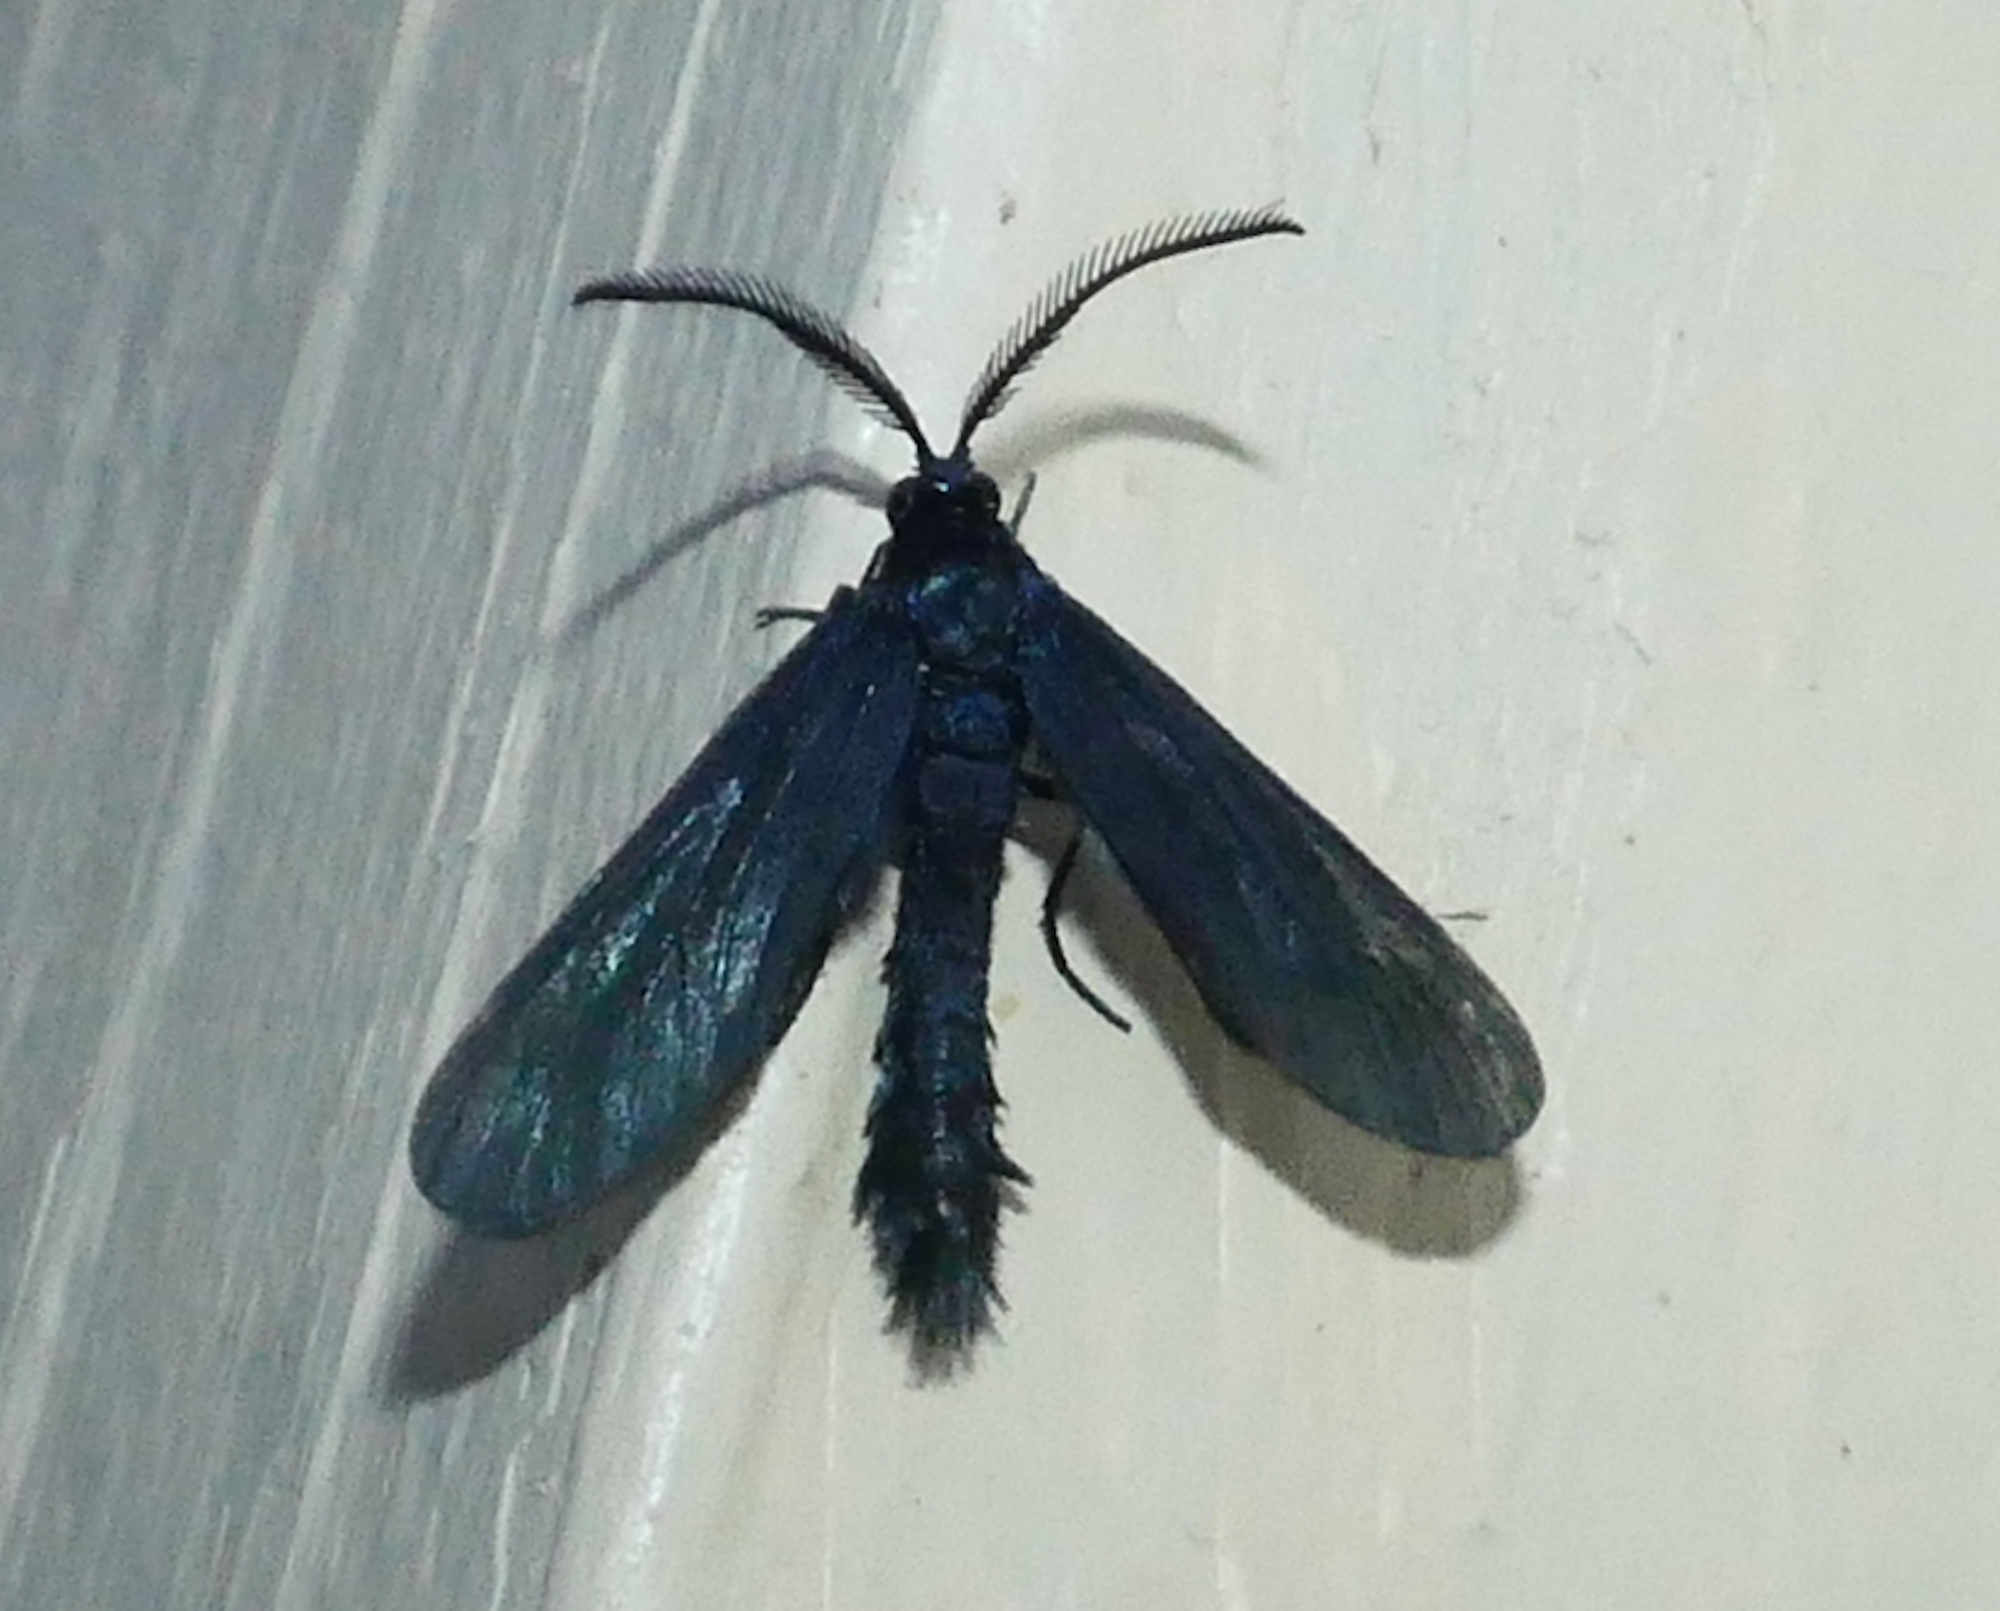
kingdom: Animalia
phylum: Arthropoda
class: Insecta
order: Lepidoptera
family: Zygaenidae
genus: Harrisina
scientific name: Harrisina coracina
